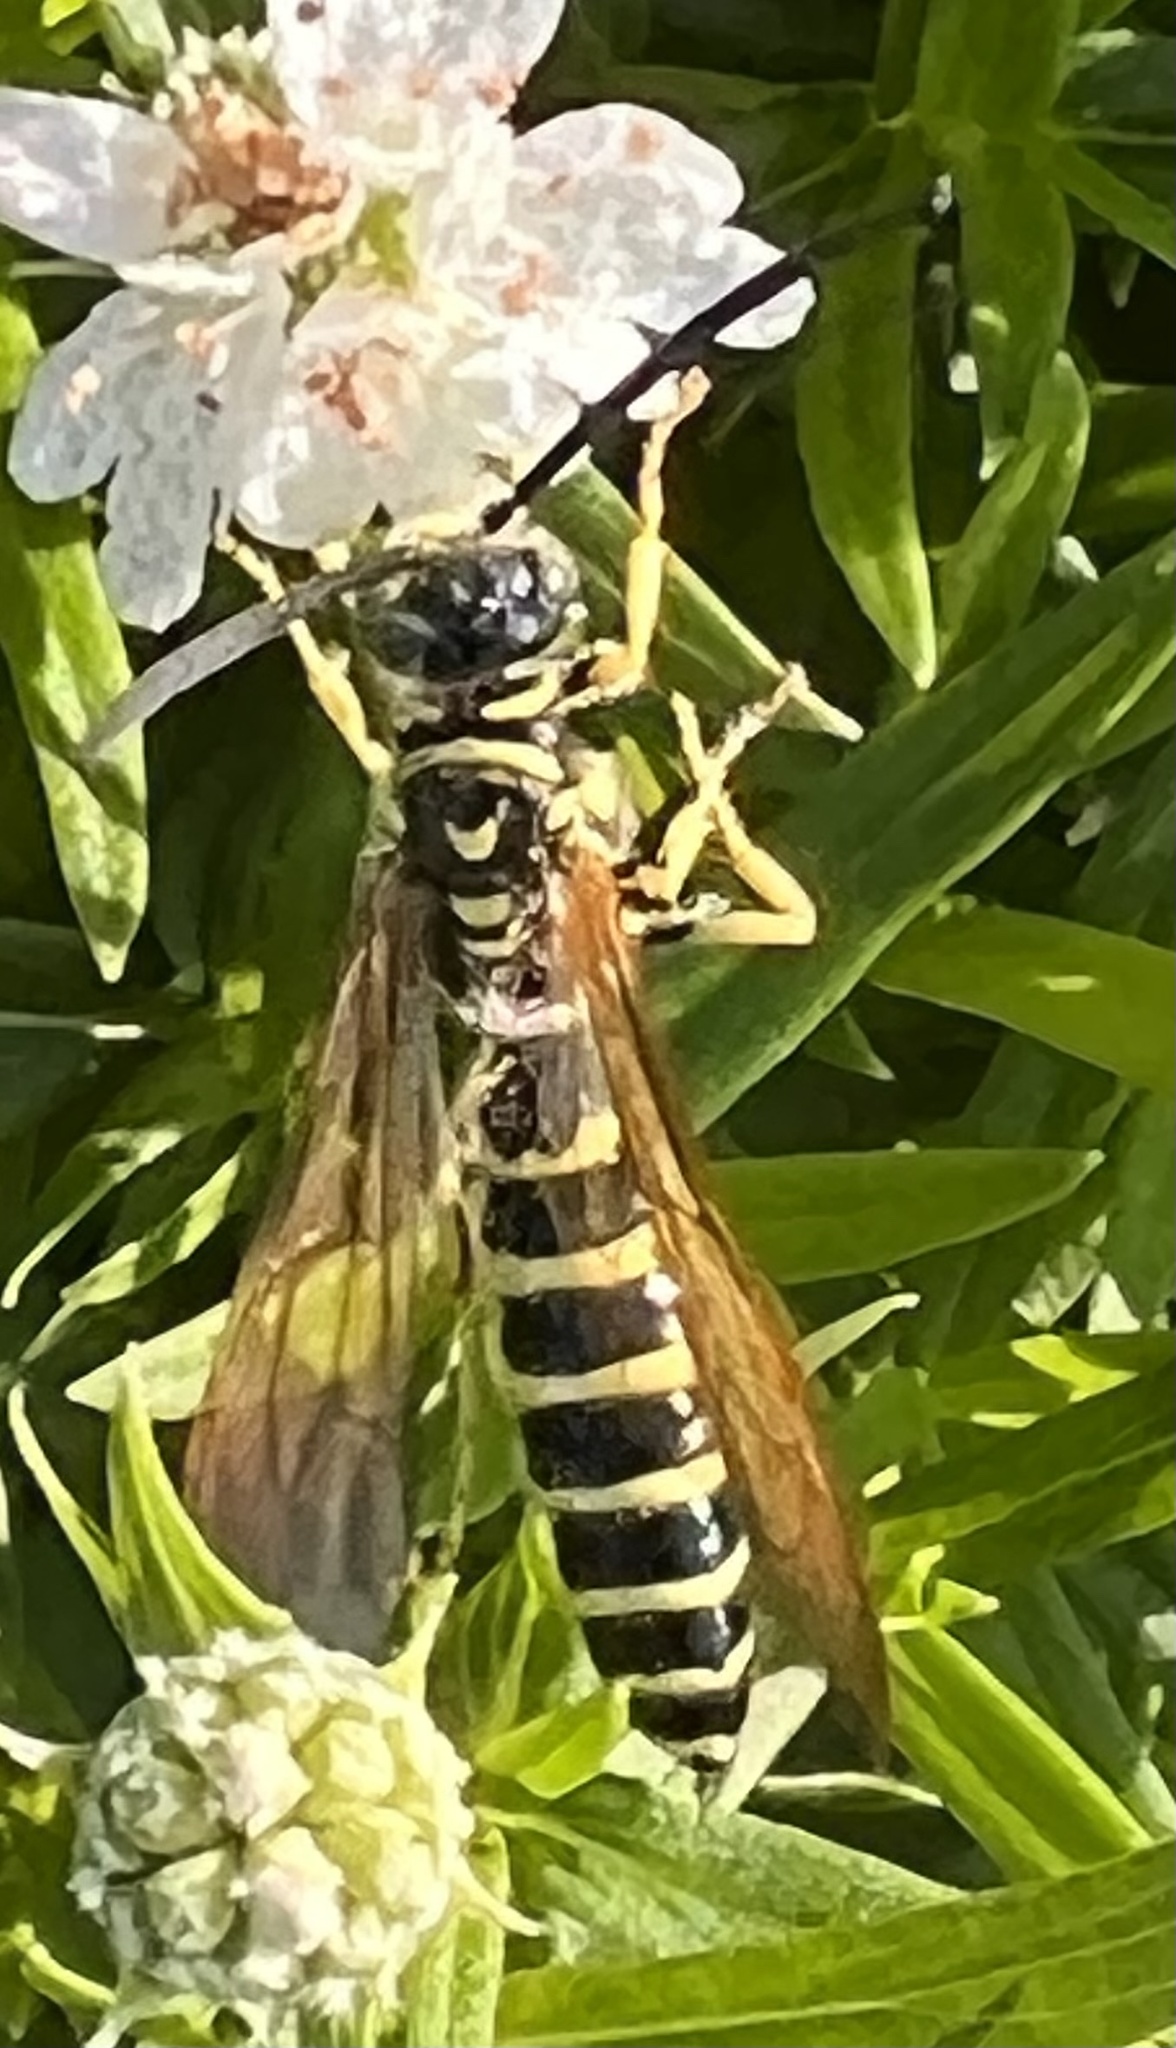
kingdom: Animalia
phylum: Arthropoda
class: Insecta
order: Hymenoptera
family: Tiphiidae
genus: Myzinum
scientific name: Myzinum quinquecinctum
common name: Five-banded thynnid wasp
